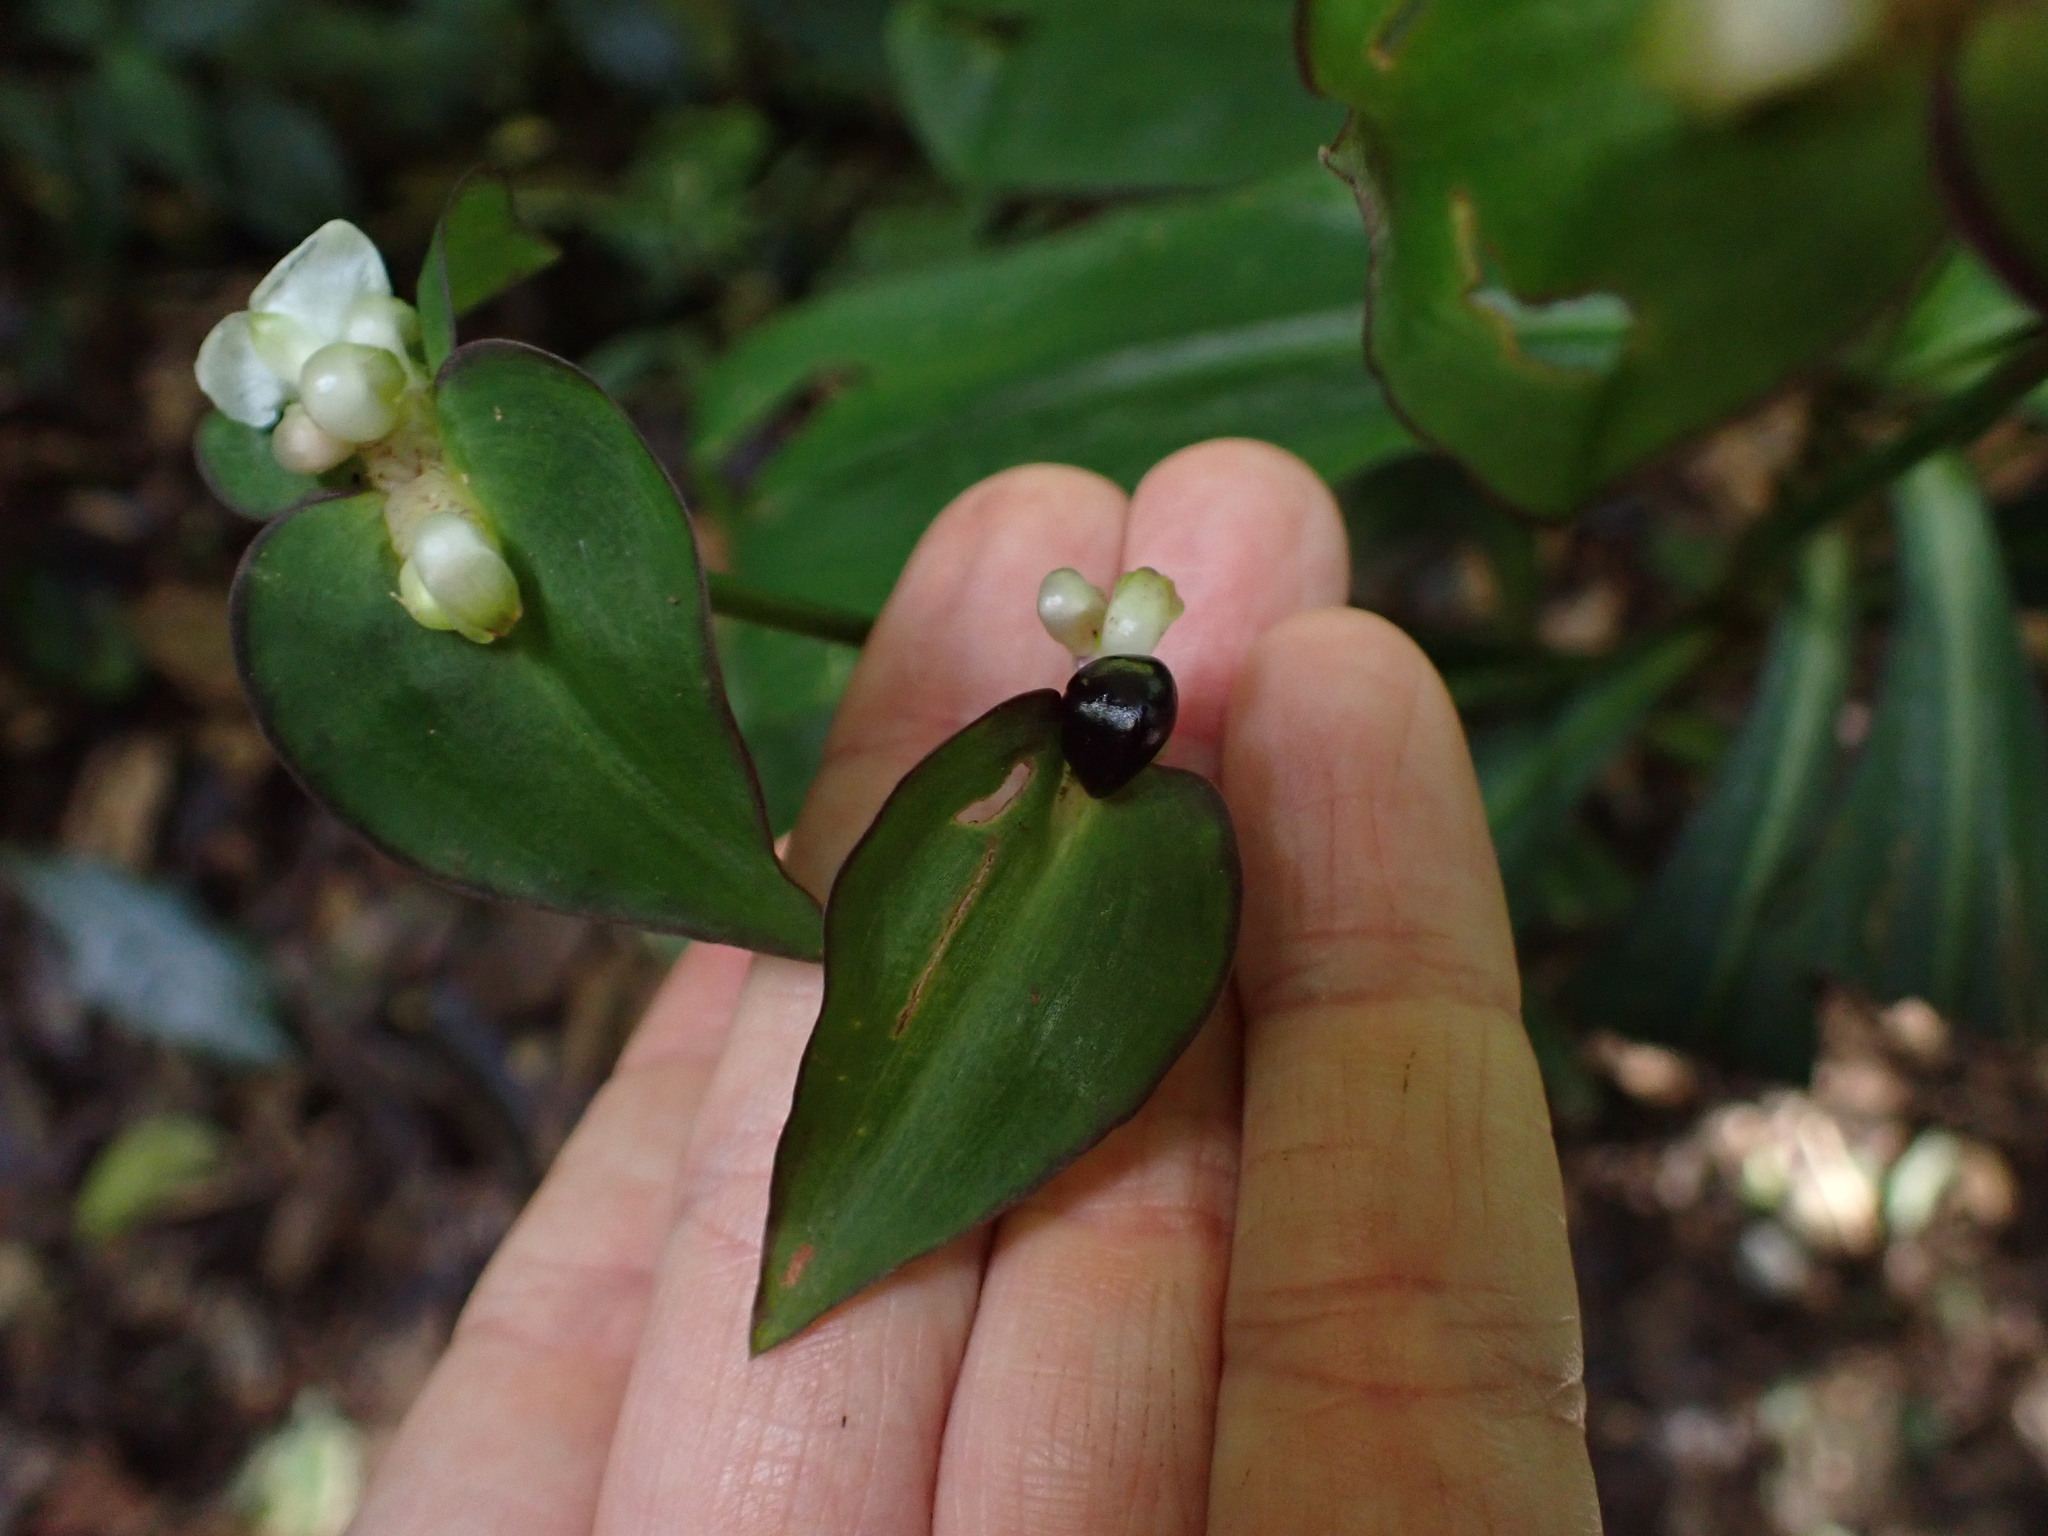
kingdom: Plantae
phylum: Tracheophyta
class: Liliopsida
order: Commelinales
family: Commelinaceae
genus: Tradescantia
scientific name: Tradescantia zanonia
